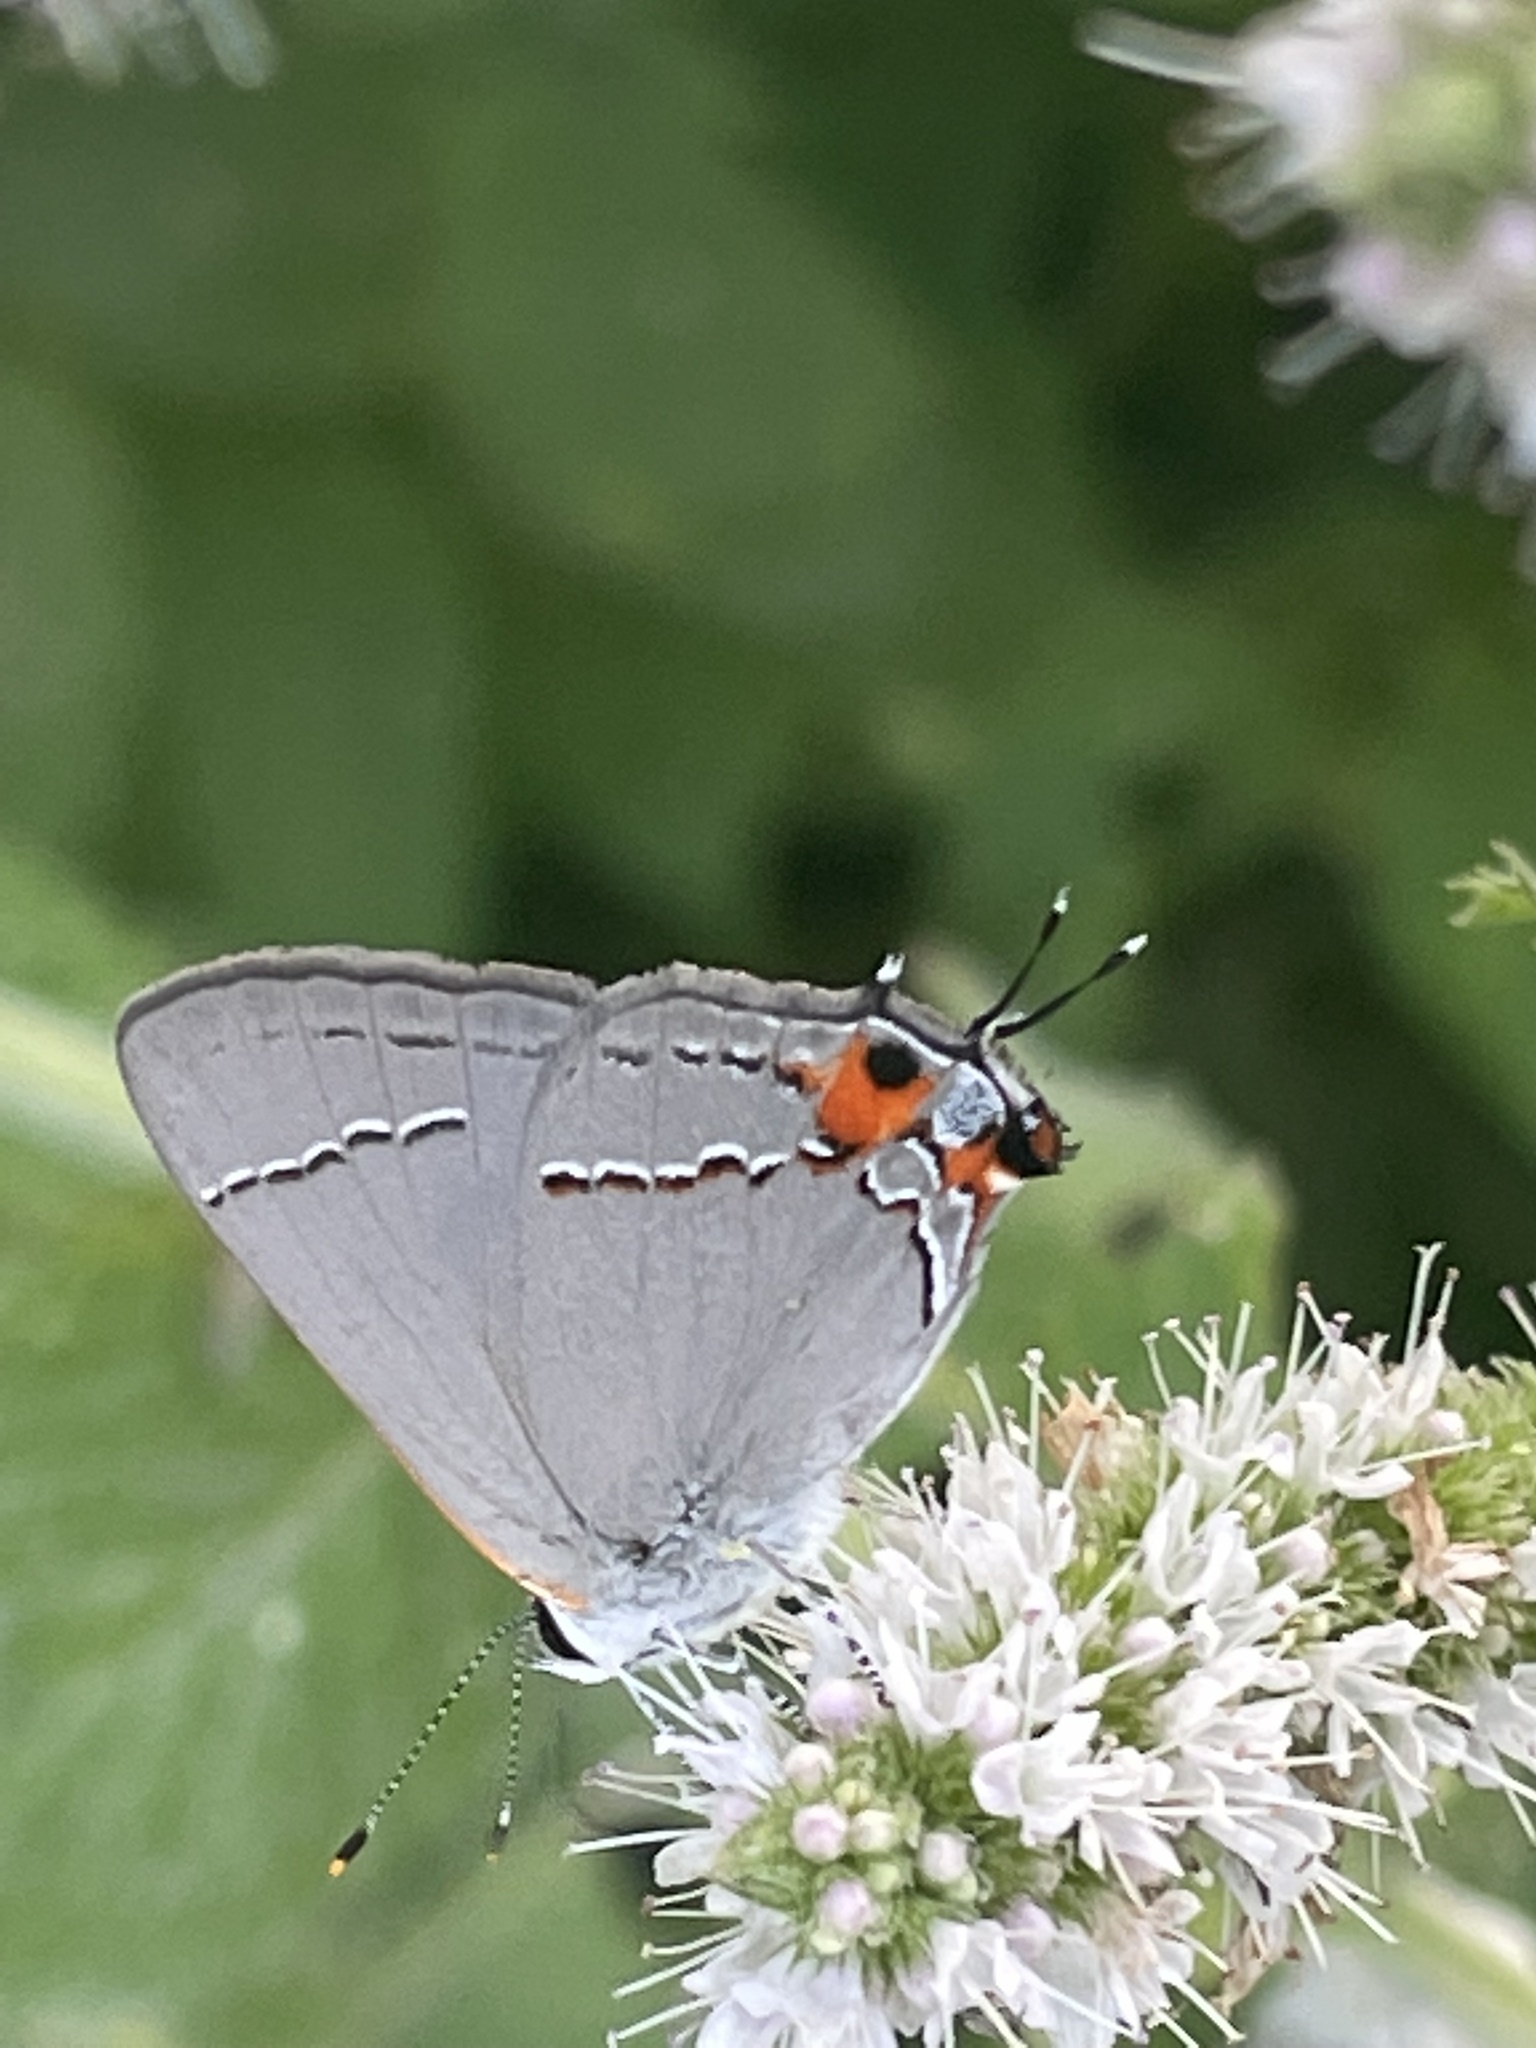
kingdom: Animalia
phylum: Arthropoda
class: Insecta
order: Lepidoptera
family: Lycaenidae
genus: Strymon
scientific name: Strymon melinus
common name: Gray hairstreak
